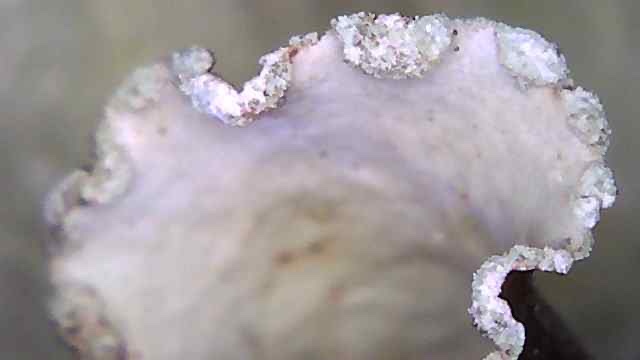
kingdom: Fungi
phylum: Ascomycota
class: Lecanoromycetes
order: Lecanorales
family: Parmeliaceae
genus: Cetrelia
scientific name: Cetrelia cetrarioides
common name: Speckled iceland lichen
